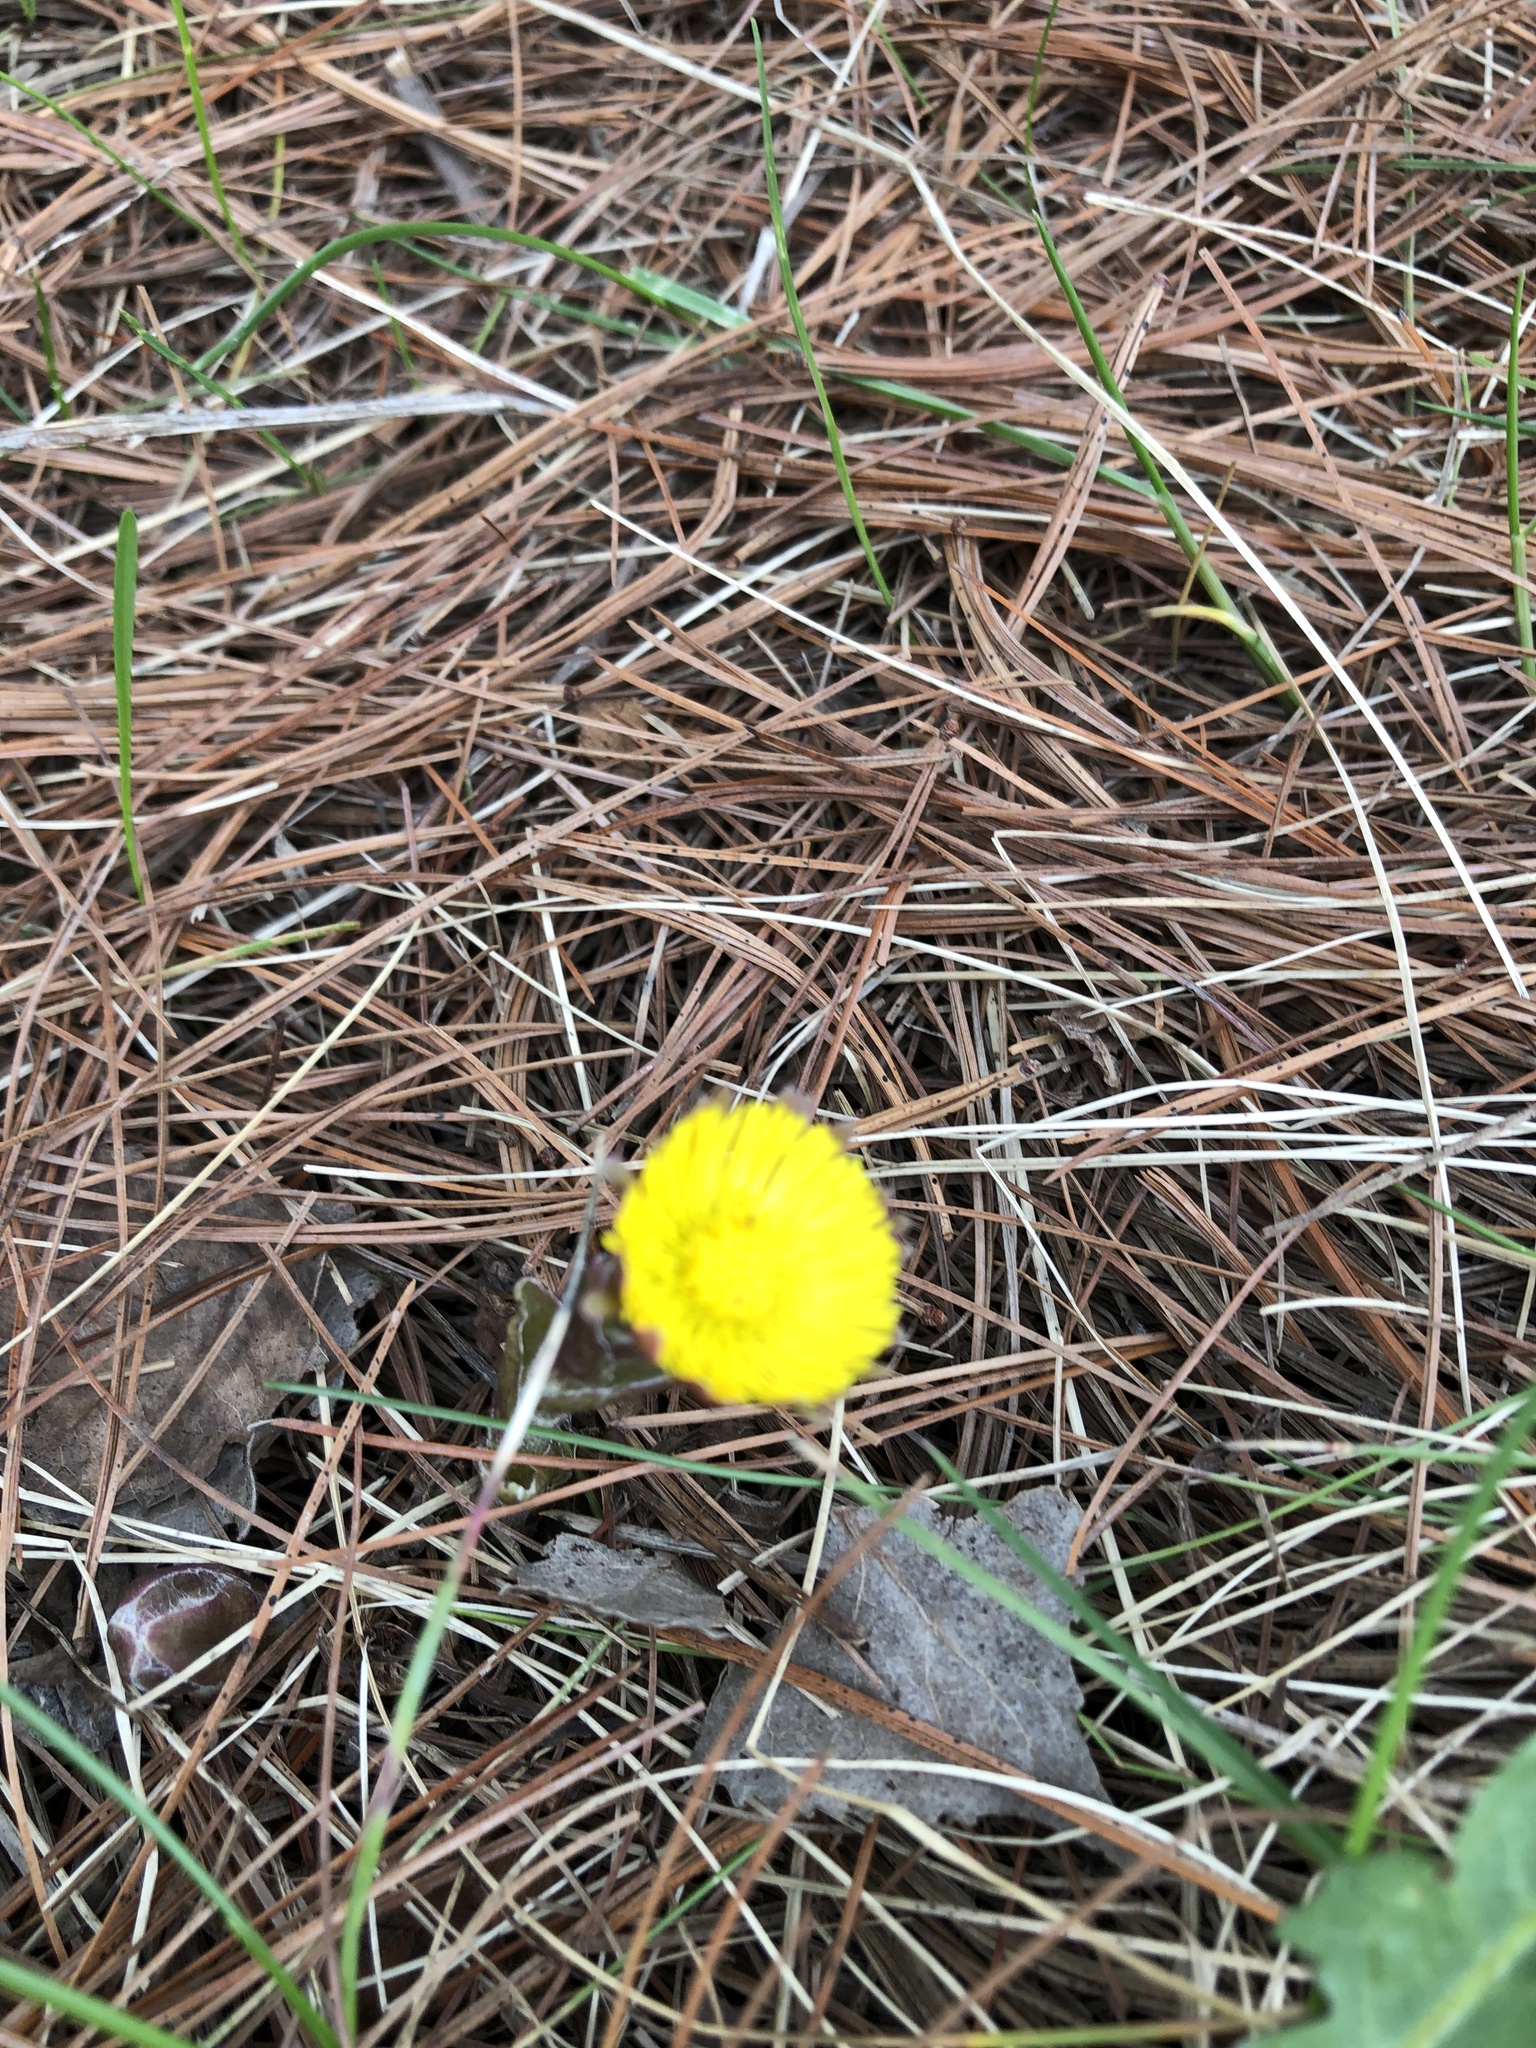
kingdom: Plantae
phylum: Tracheophyta
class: Magnoliopsida
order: Asterales
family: Asteraceae
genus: Tussilago
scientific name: Tussilago farfara
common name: Coltsfoot
